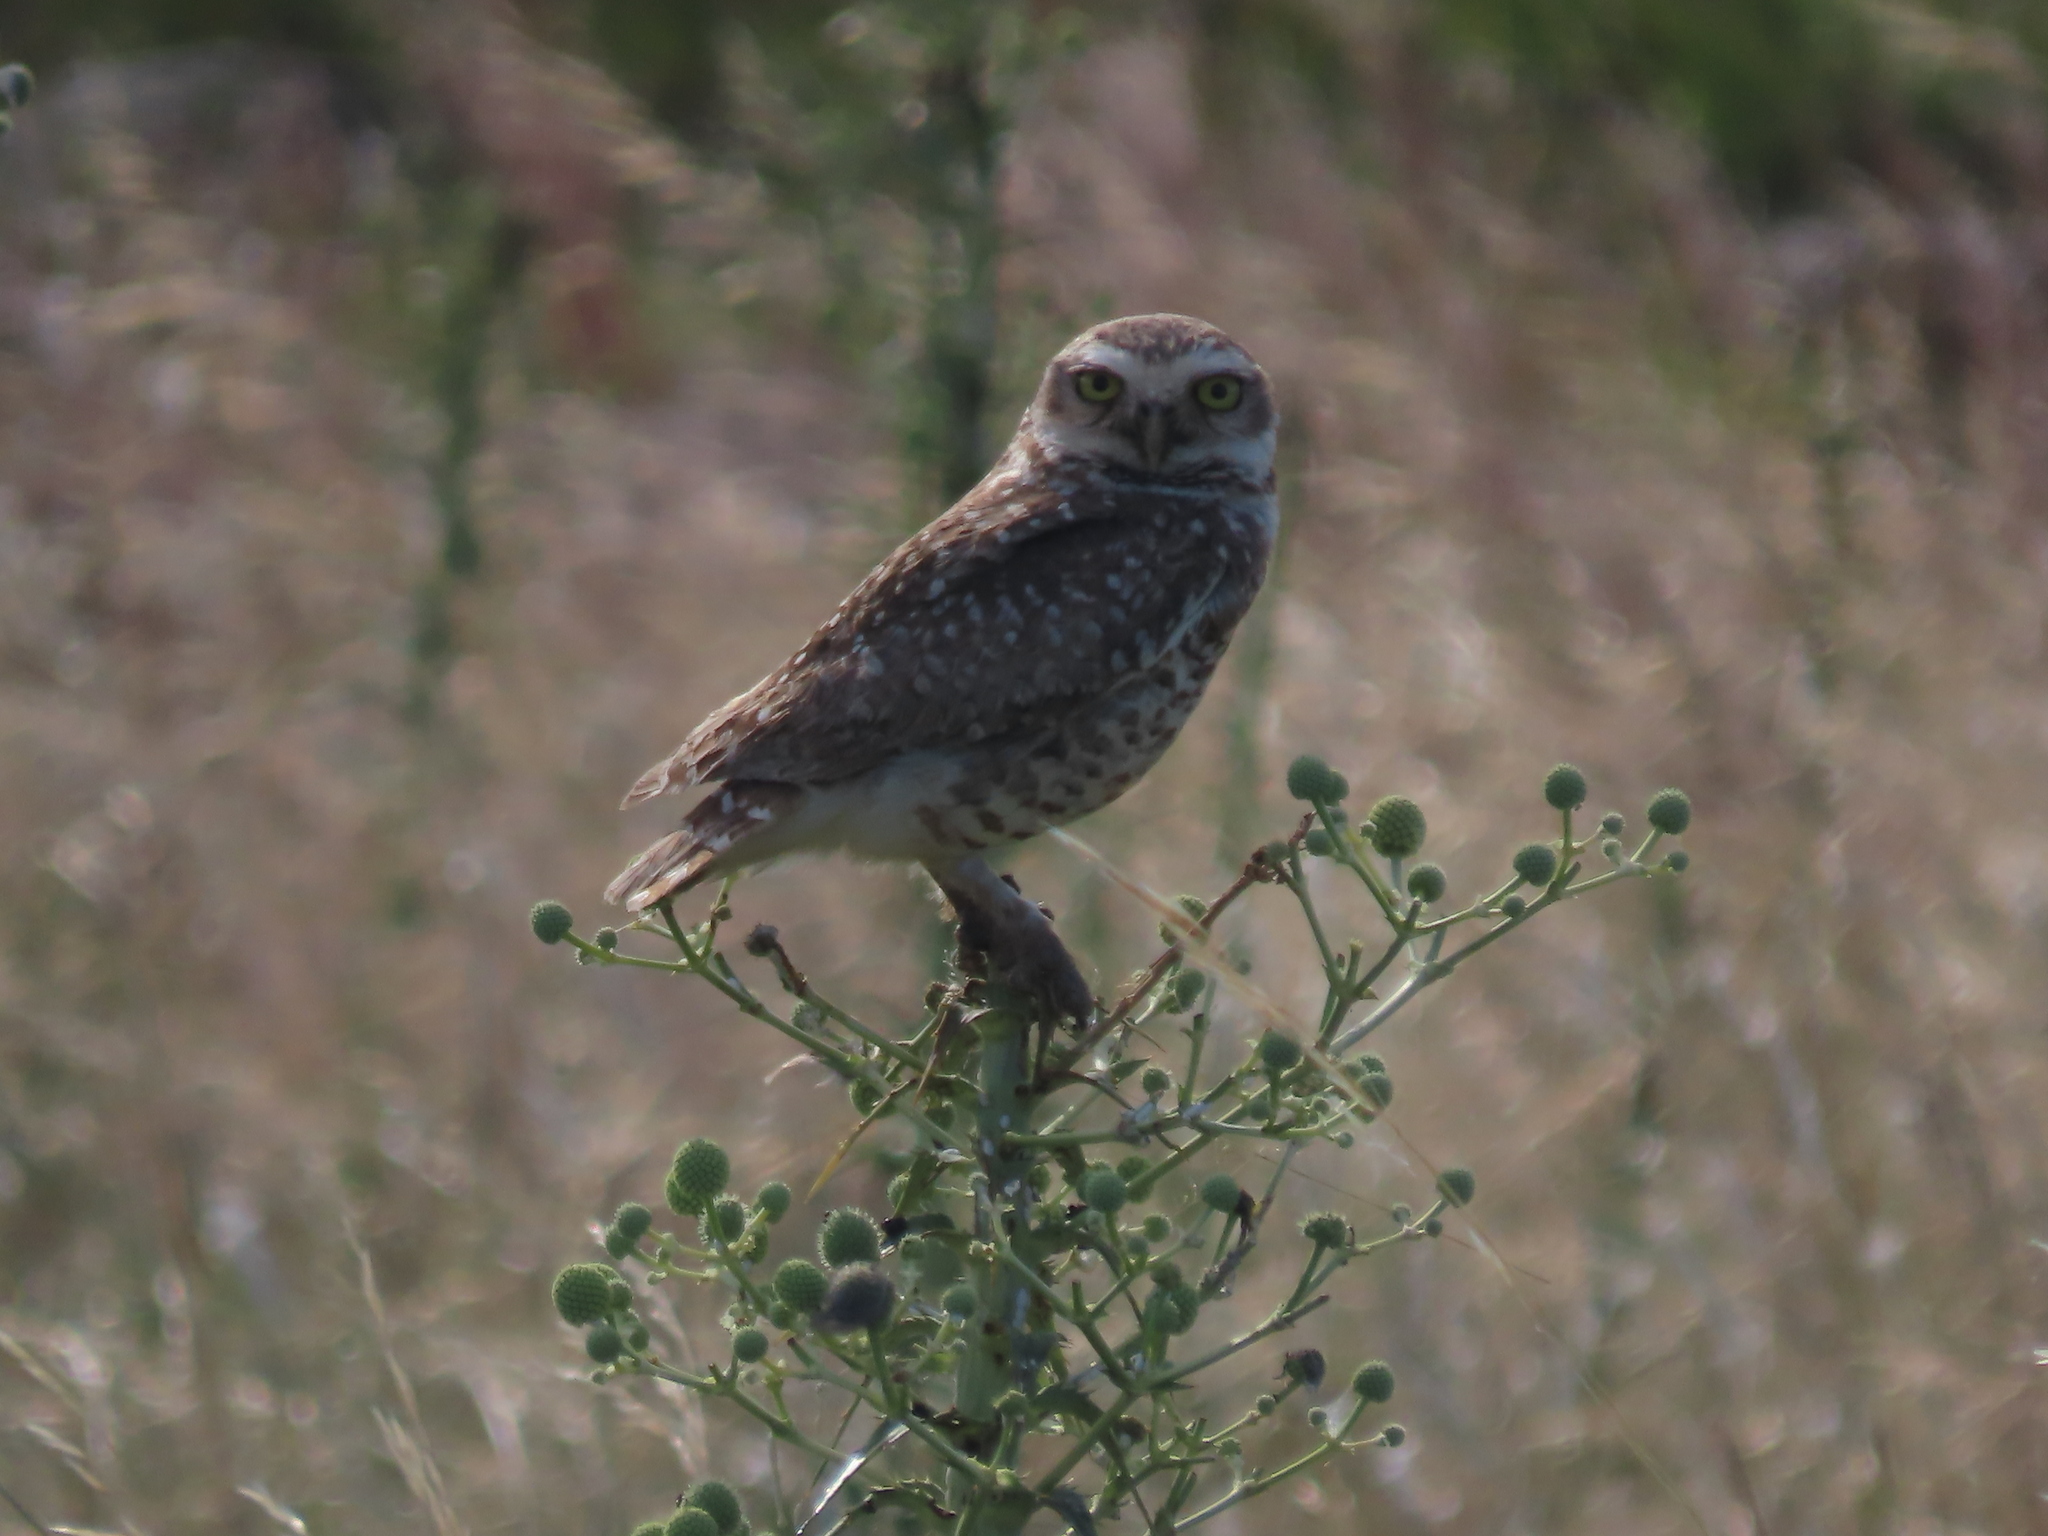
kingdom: Animalia
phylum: Chordata
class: Aves
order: Strigiformes
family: Strigidae
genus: Athene
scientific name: Athene cunicularia
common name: Burrowing owl
